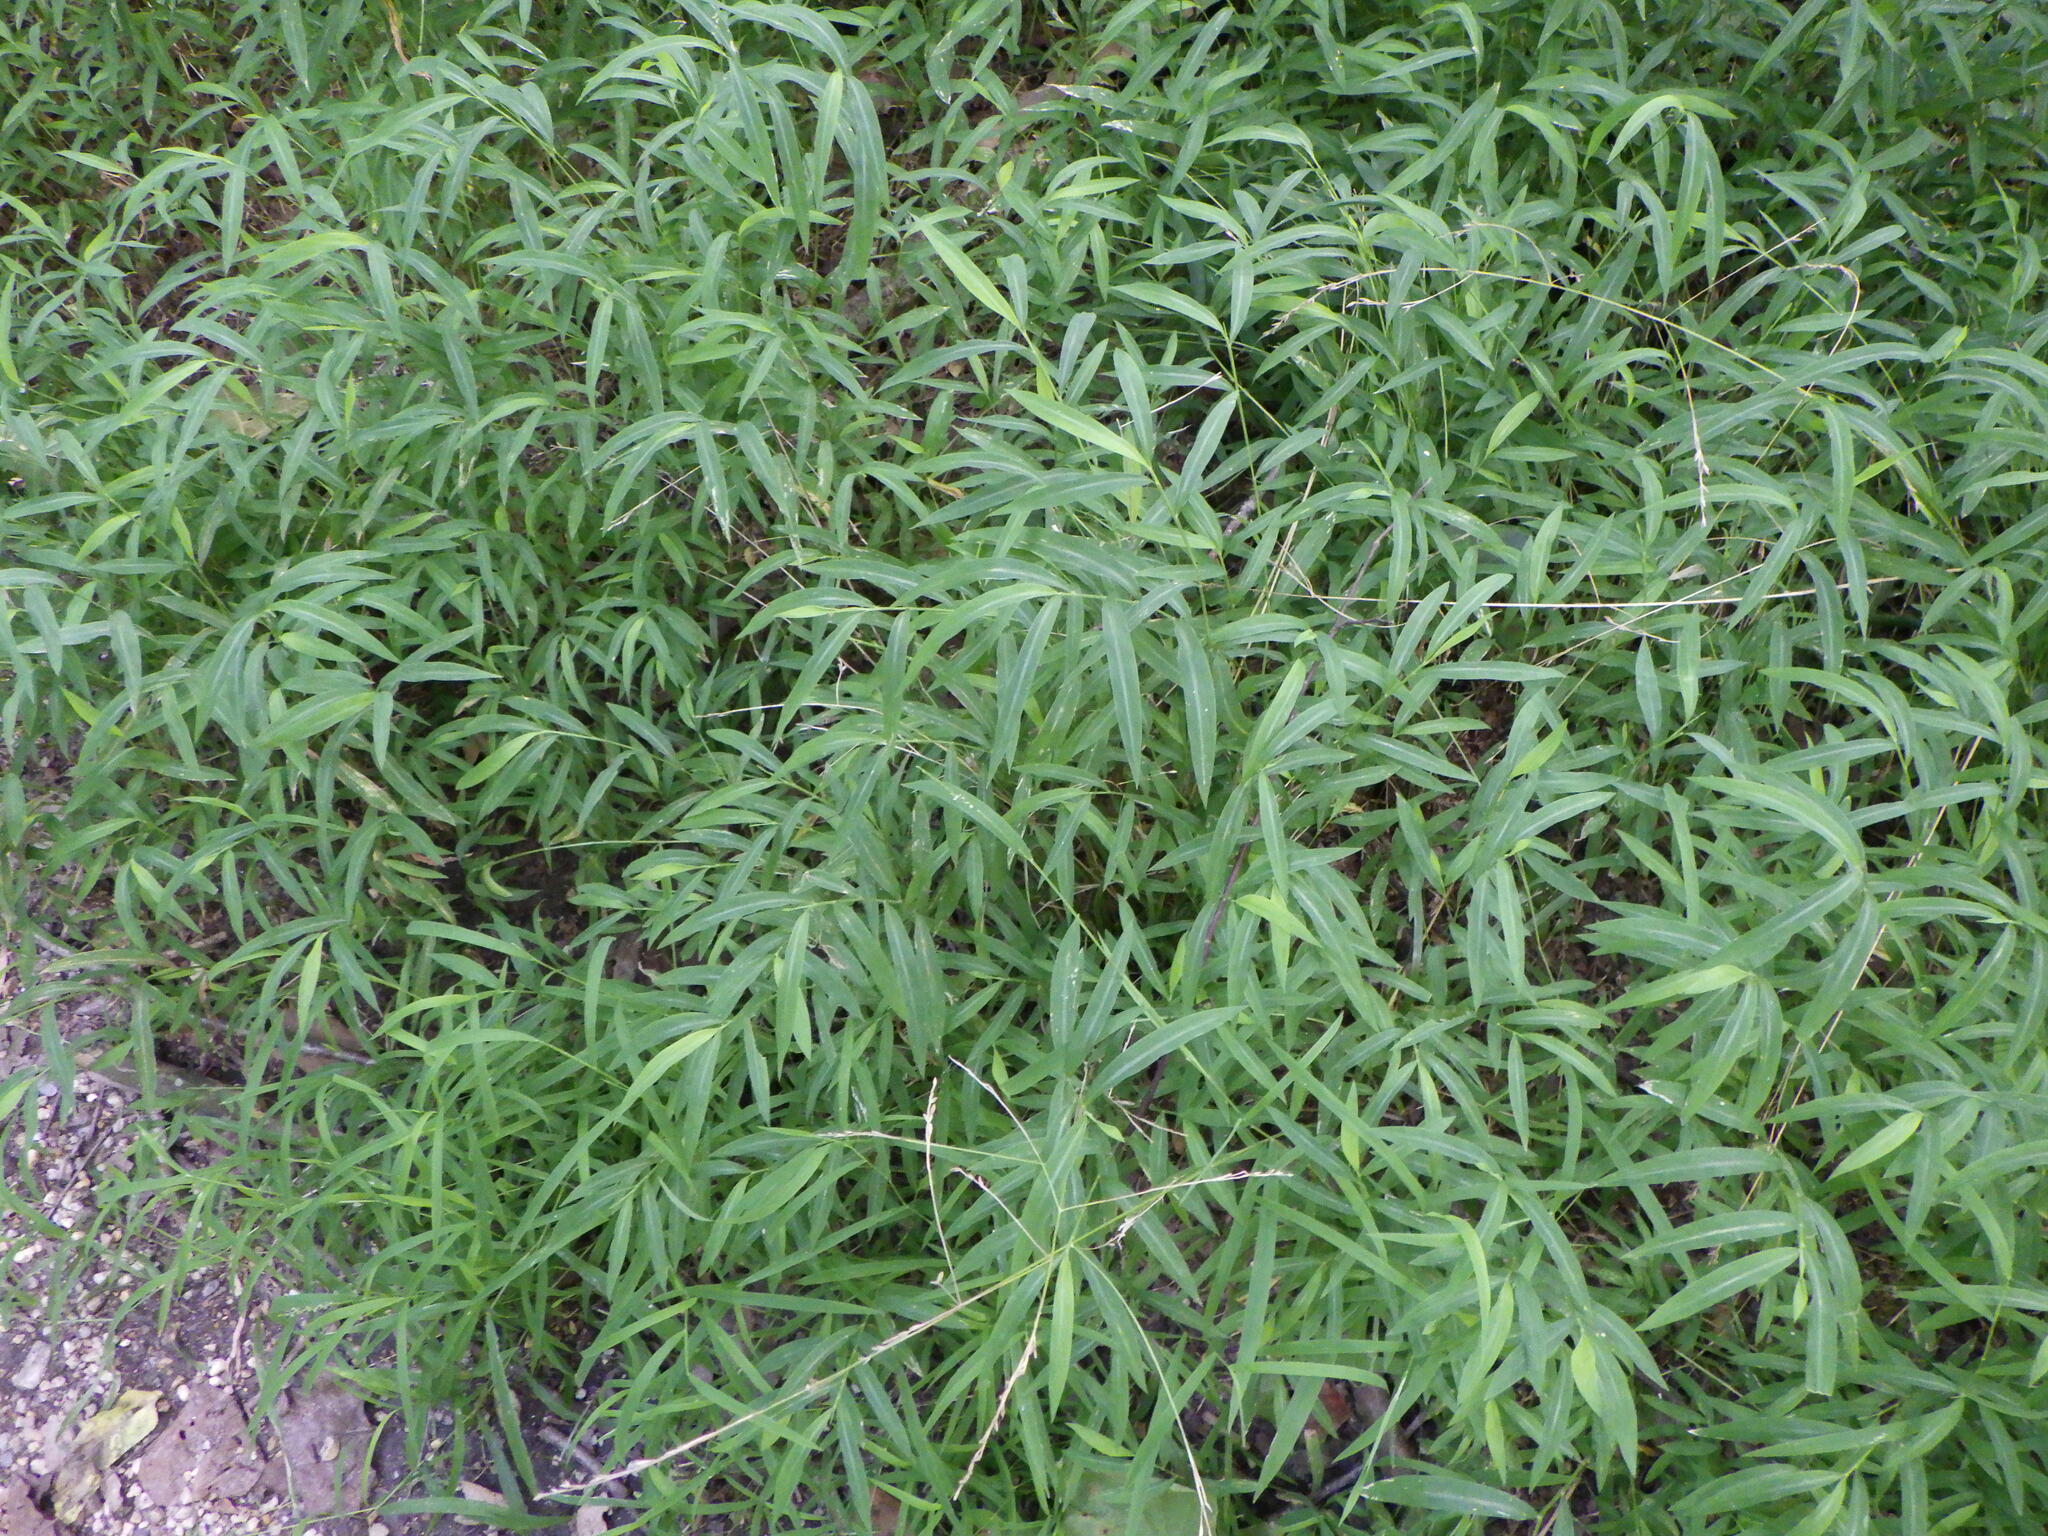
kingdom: Plantae
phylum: Tracheophyta
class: Liliopsida
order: Poales
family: Poaceae
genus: Microstegium
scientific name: Microstegium vimineum
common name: Japanese stiltgrass
